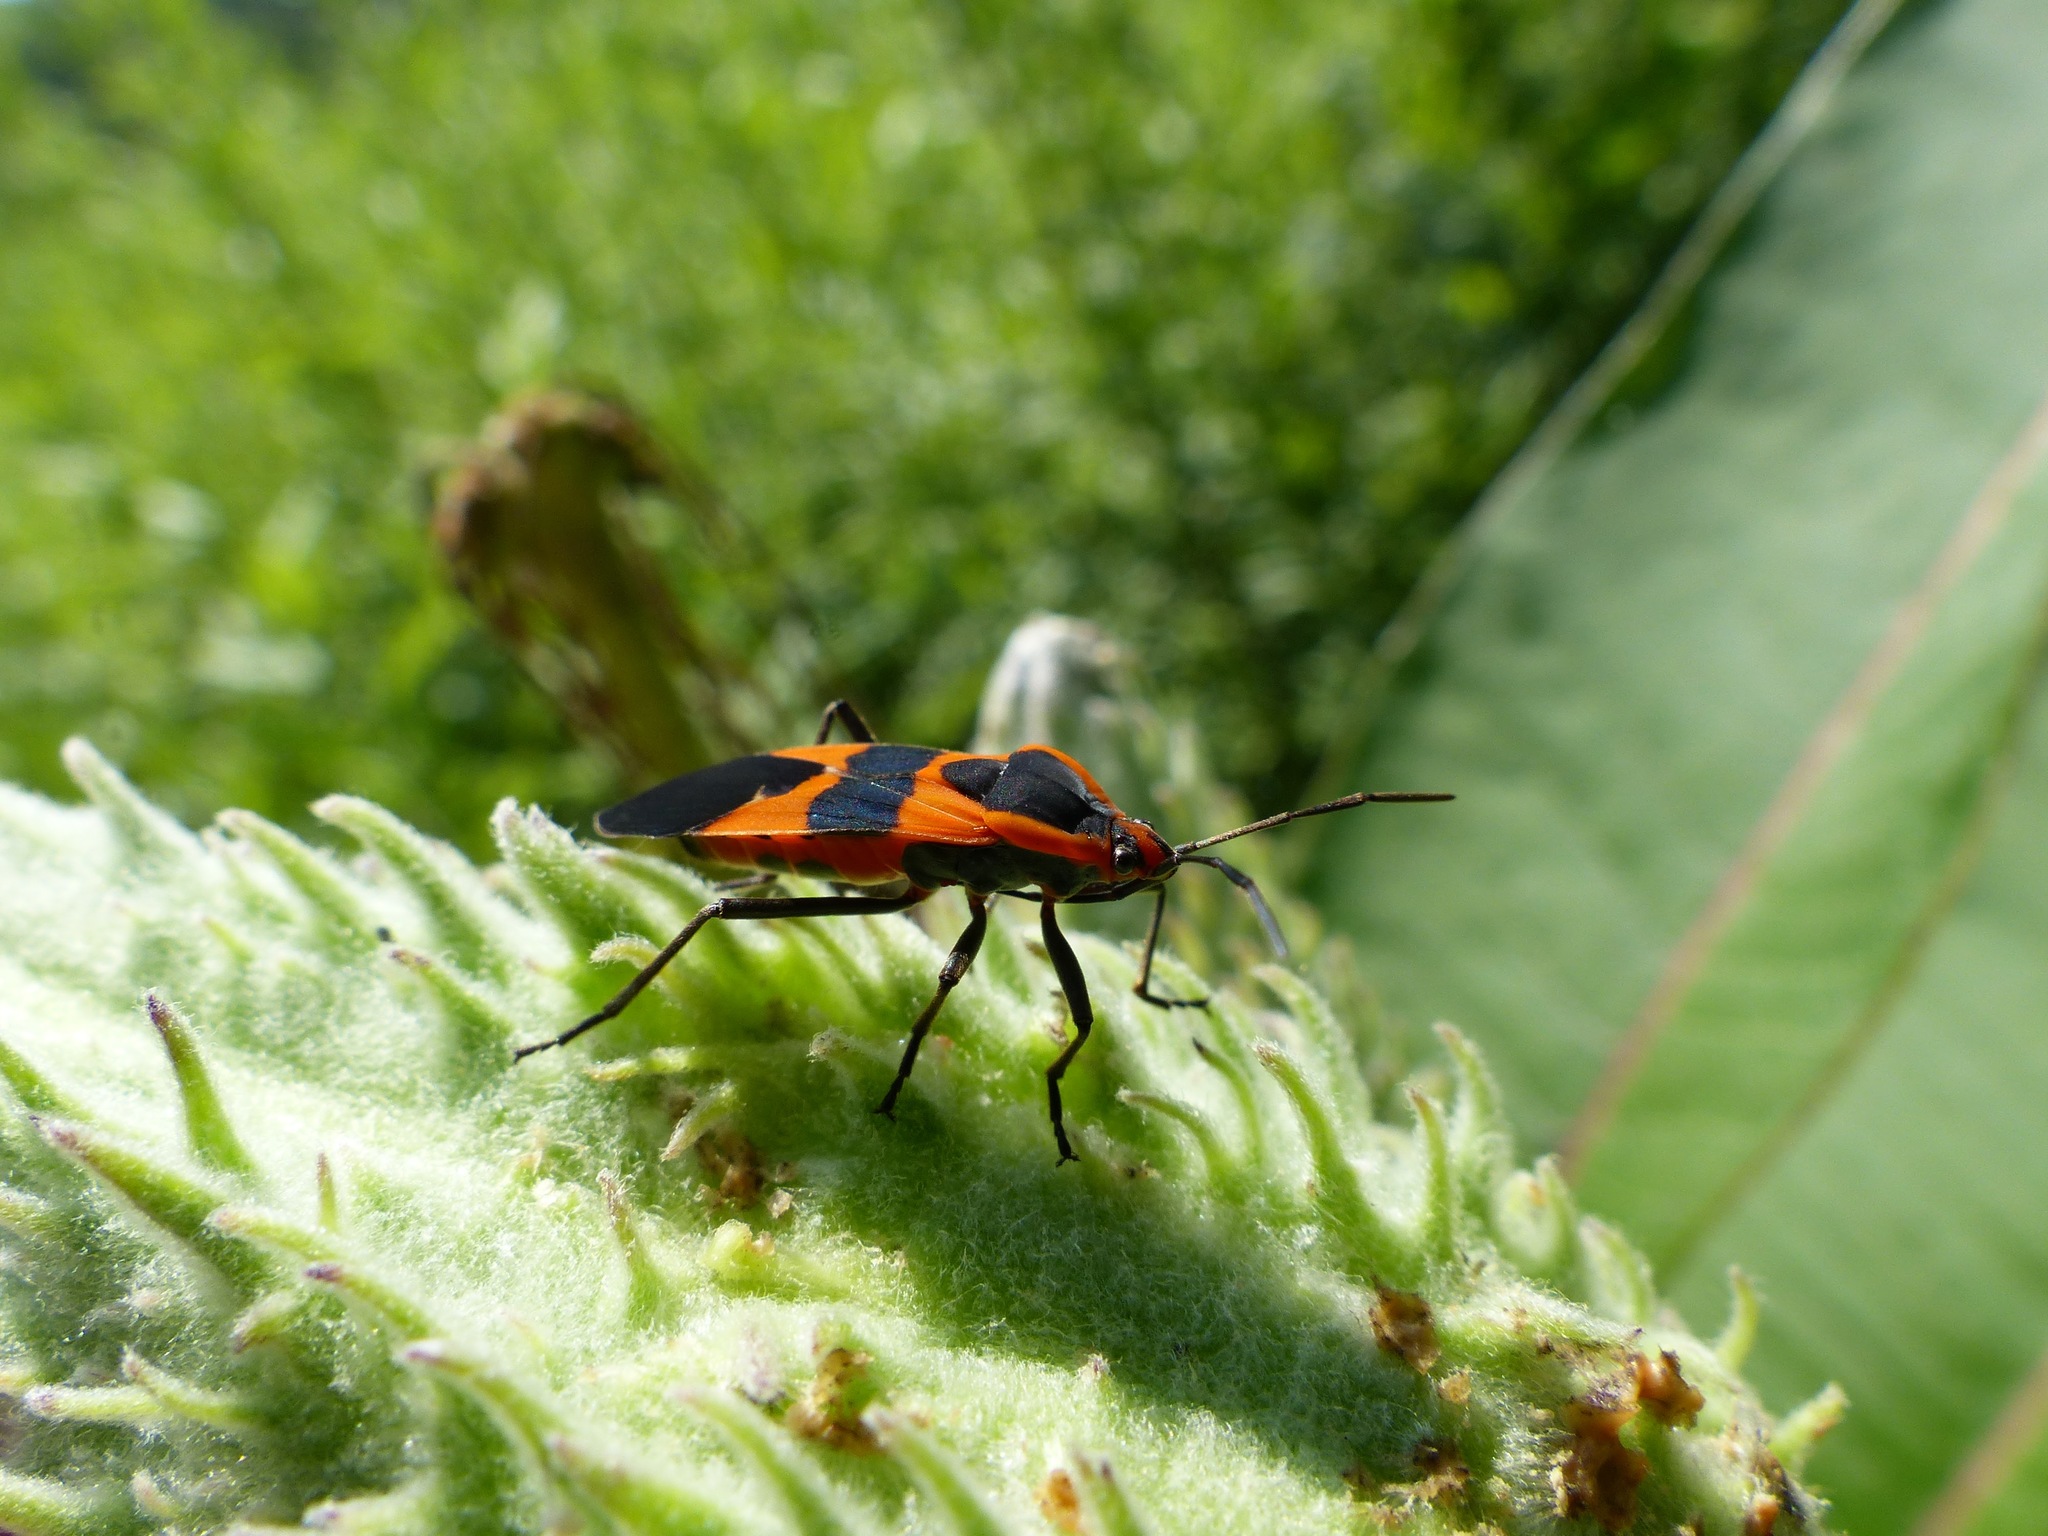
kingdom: Animalia
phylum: Arthropoda
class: Insecta
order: Hemiptera
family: Lygaeidae
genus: Oncopeltus
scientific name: Oncopeltus fasciatus
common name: Large milkweed bug
